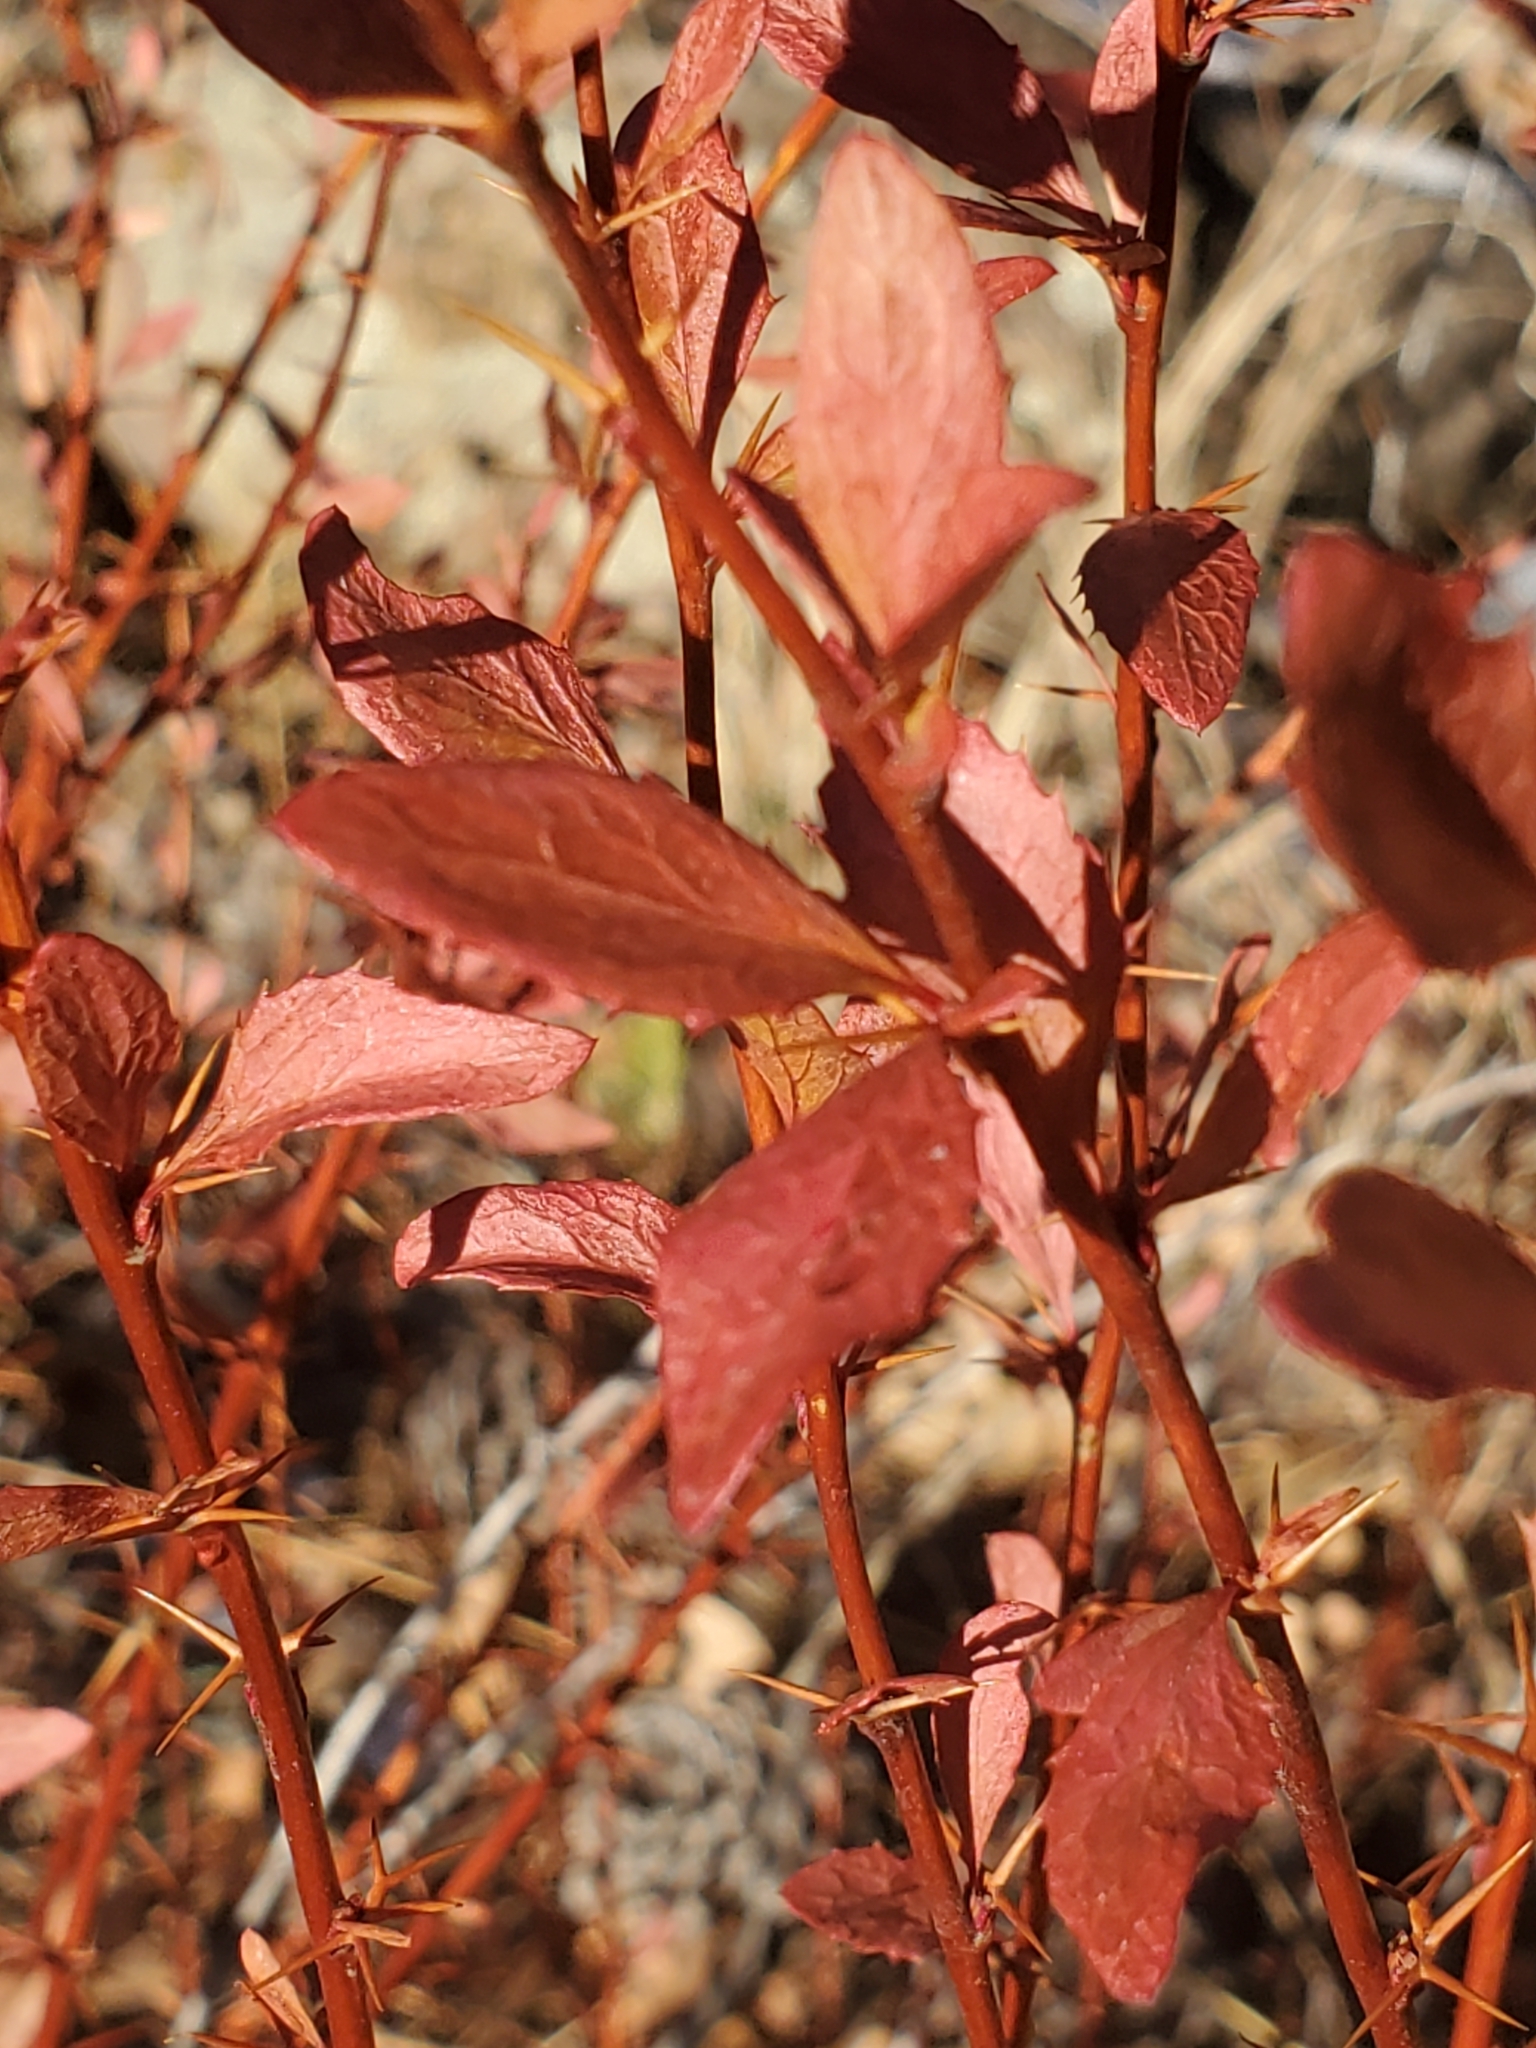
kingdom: Plantae
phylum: Tracheophyta
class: Magnoliopsida
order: Ranunculales
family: Berberidaceae
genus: Berberis
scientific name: Berberis fendleri
